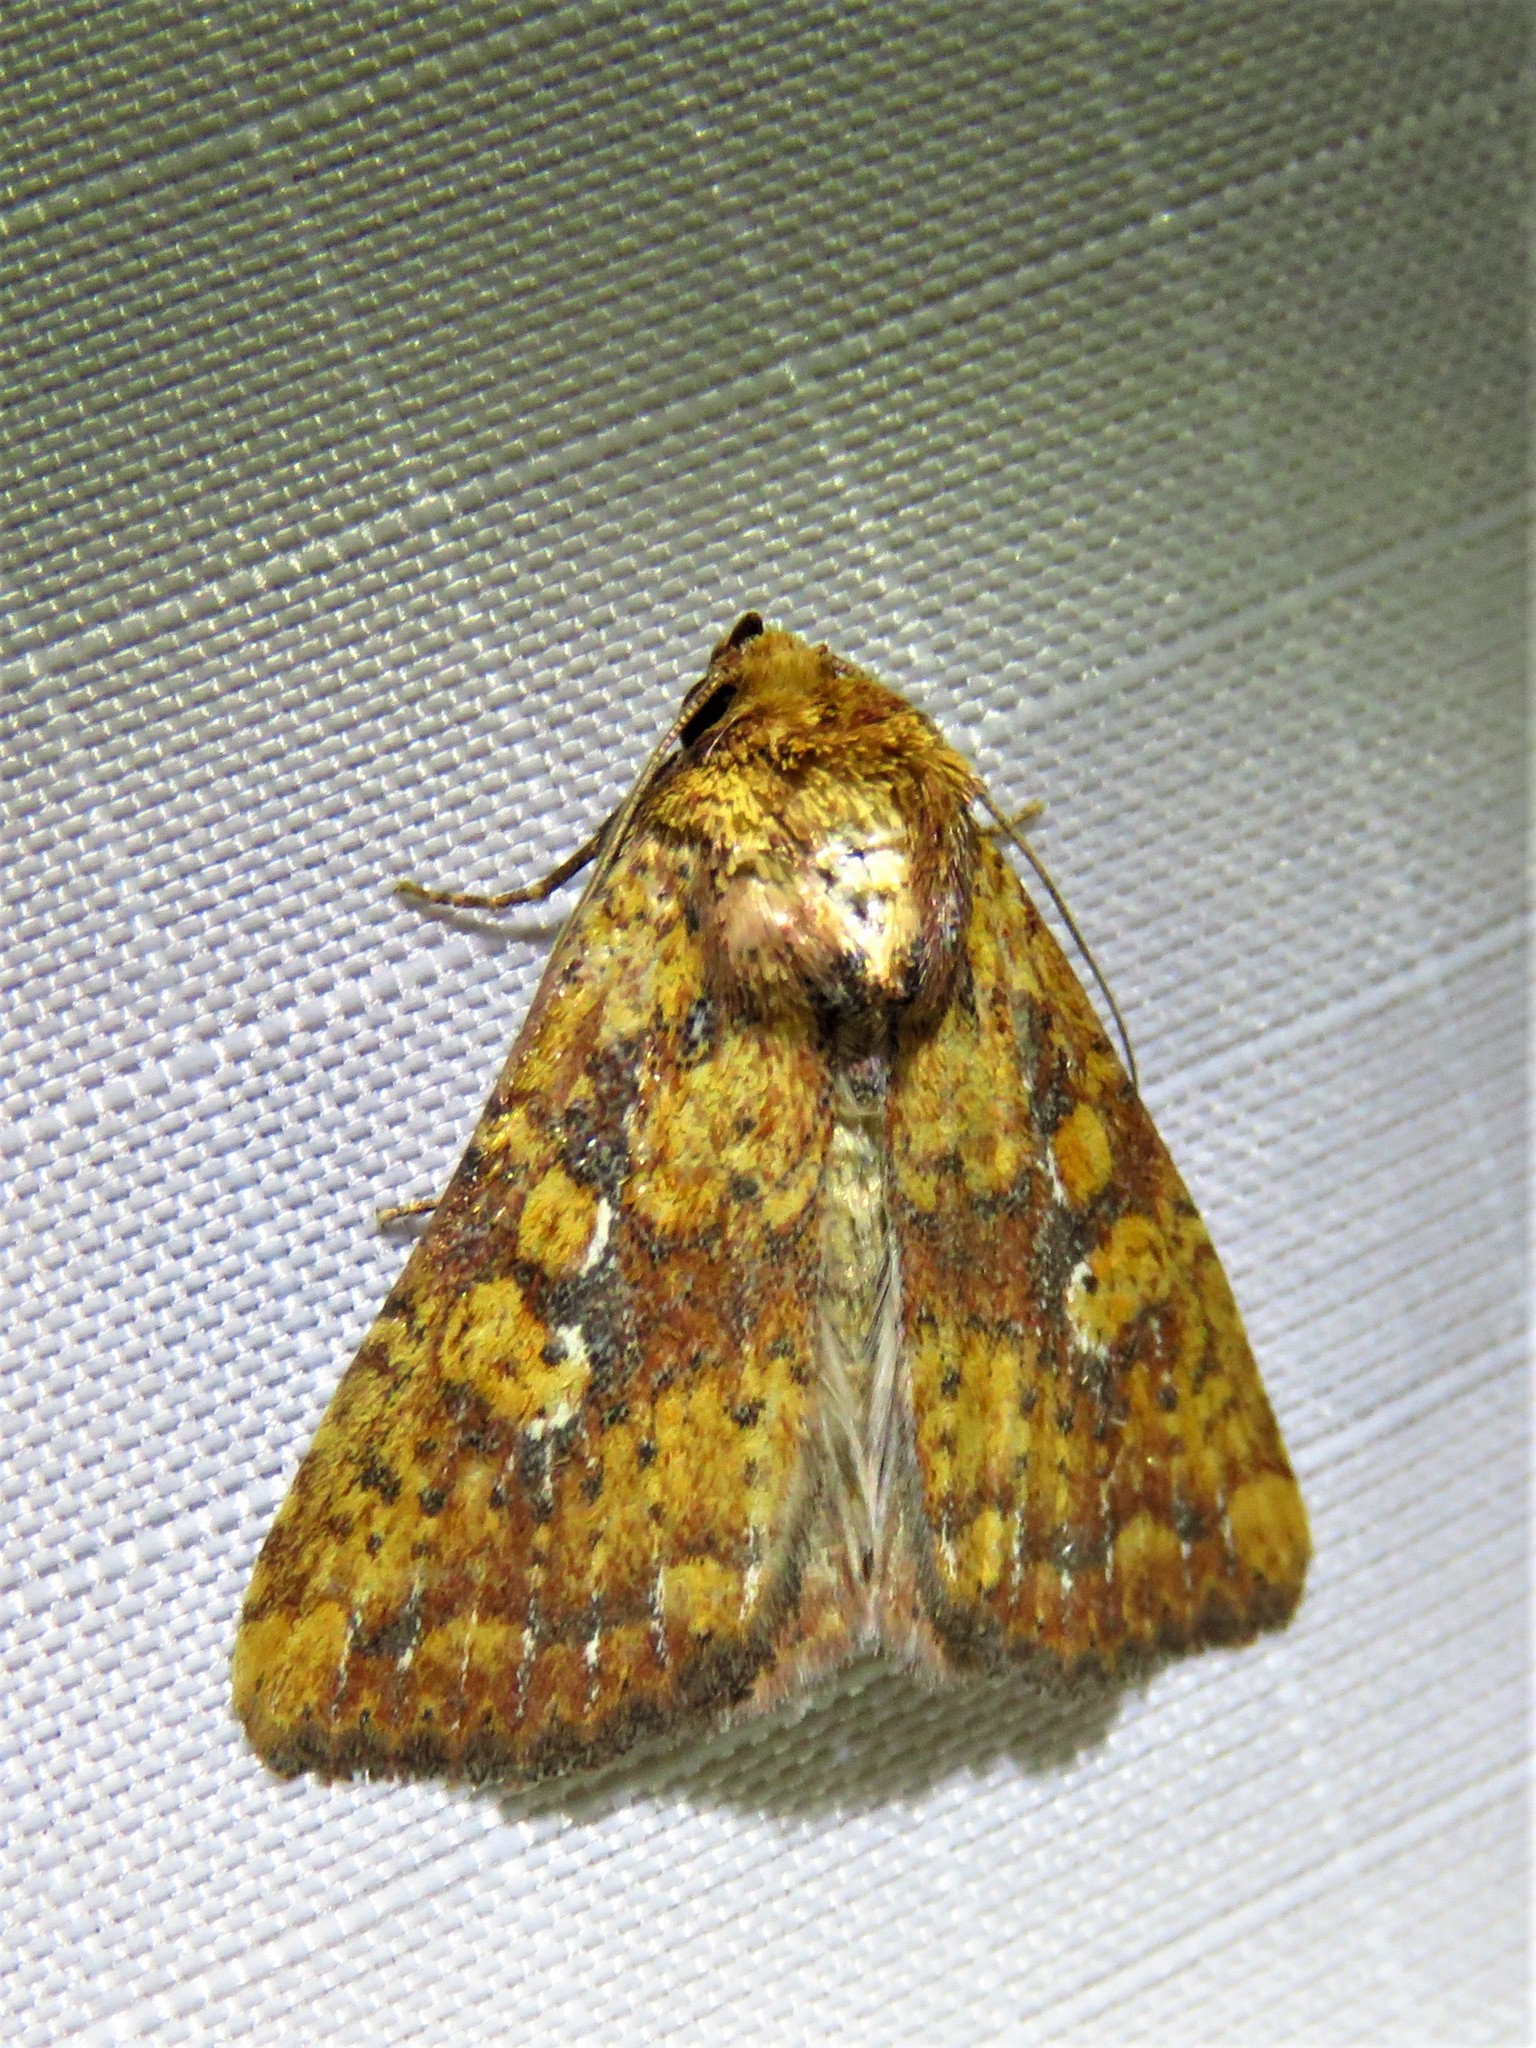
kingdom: Animalia
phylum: Arthropoda
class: Insecta
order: Lepidoptera
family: Noctuidae
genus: Perigea
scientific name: Perigea xanthioides
